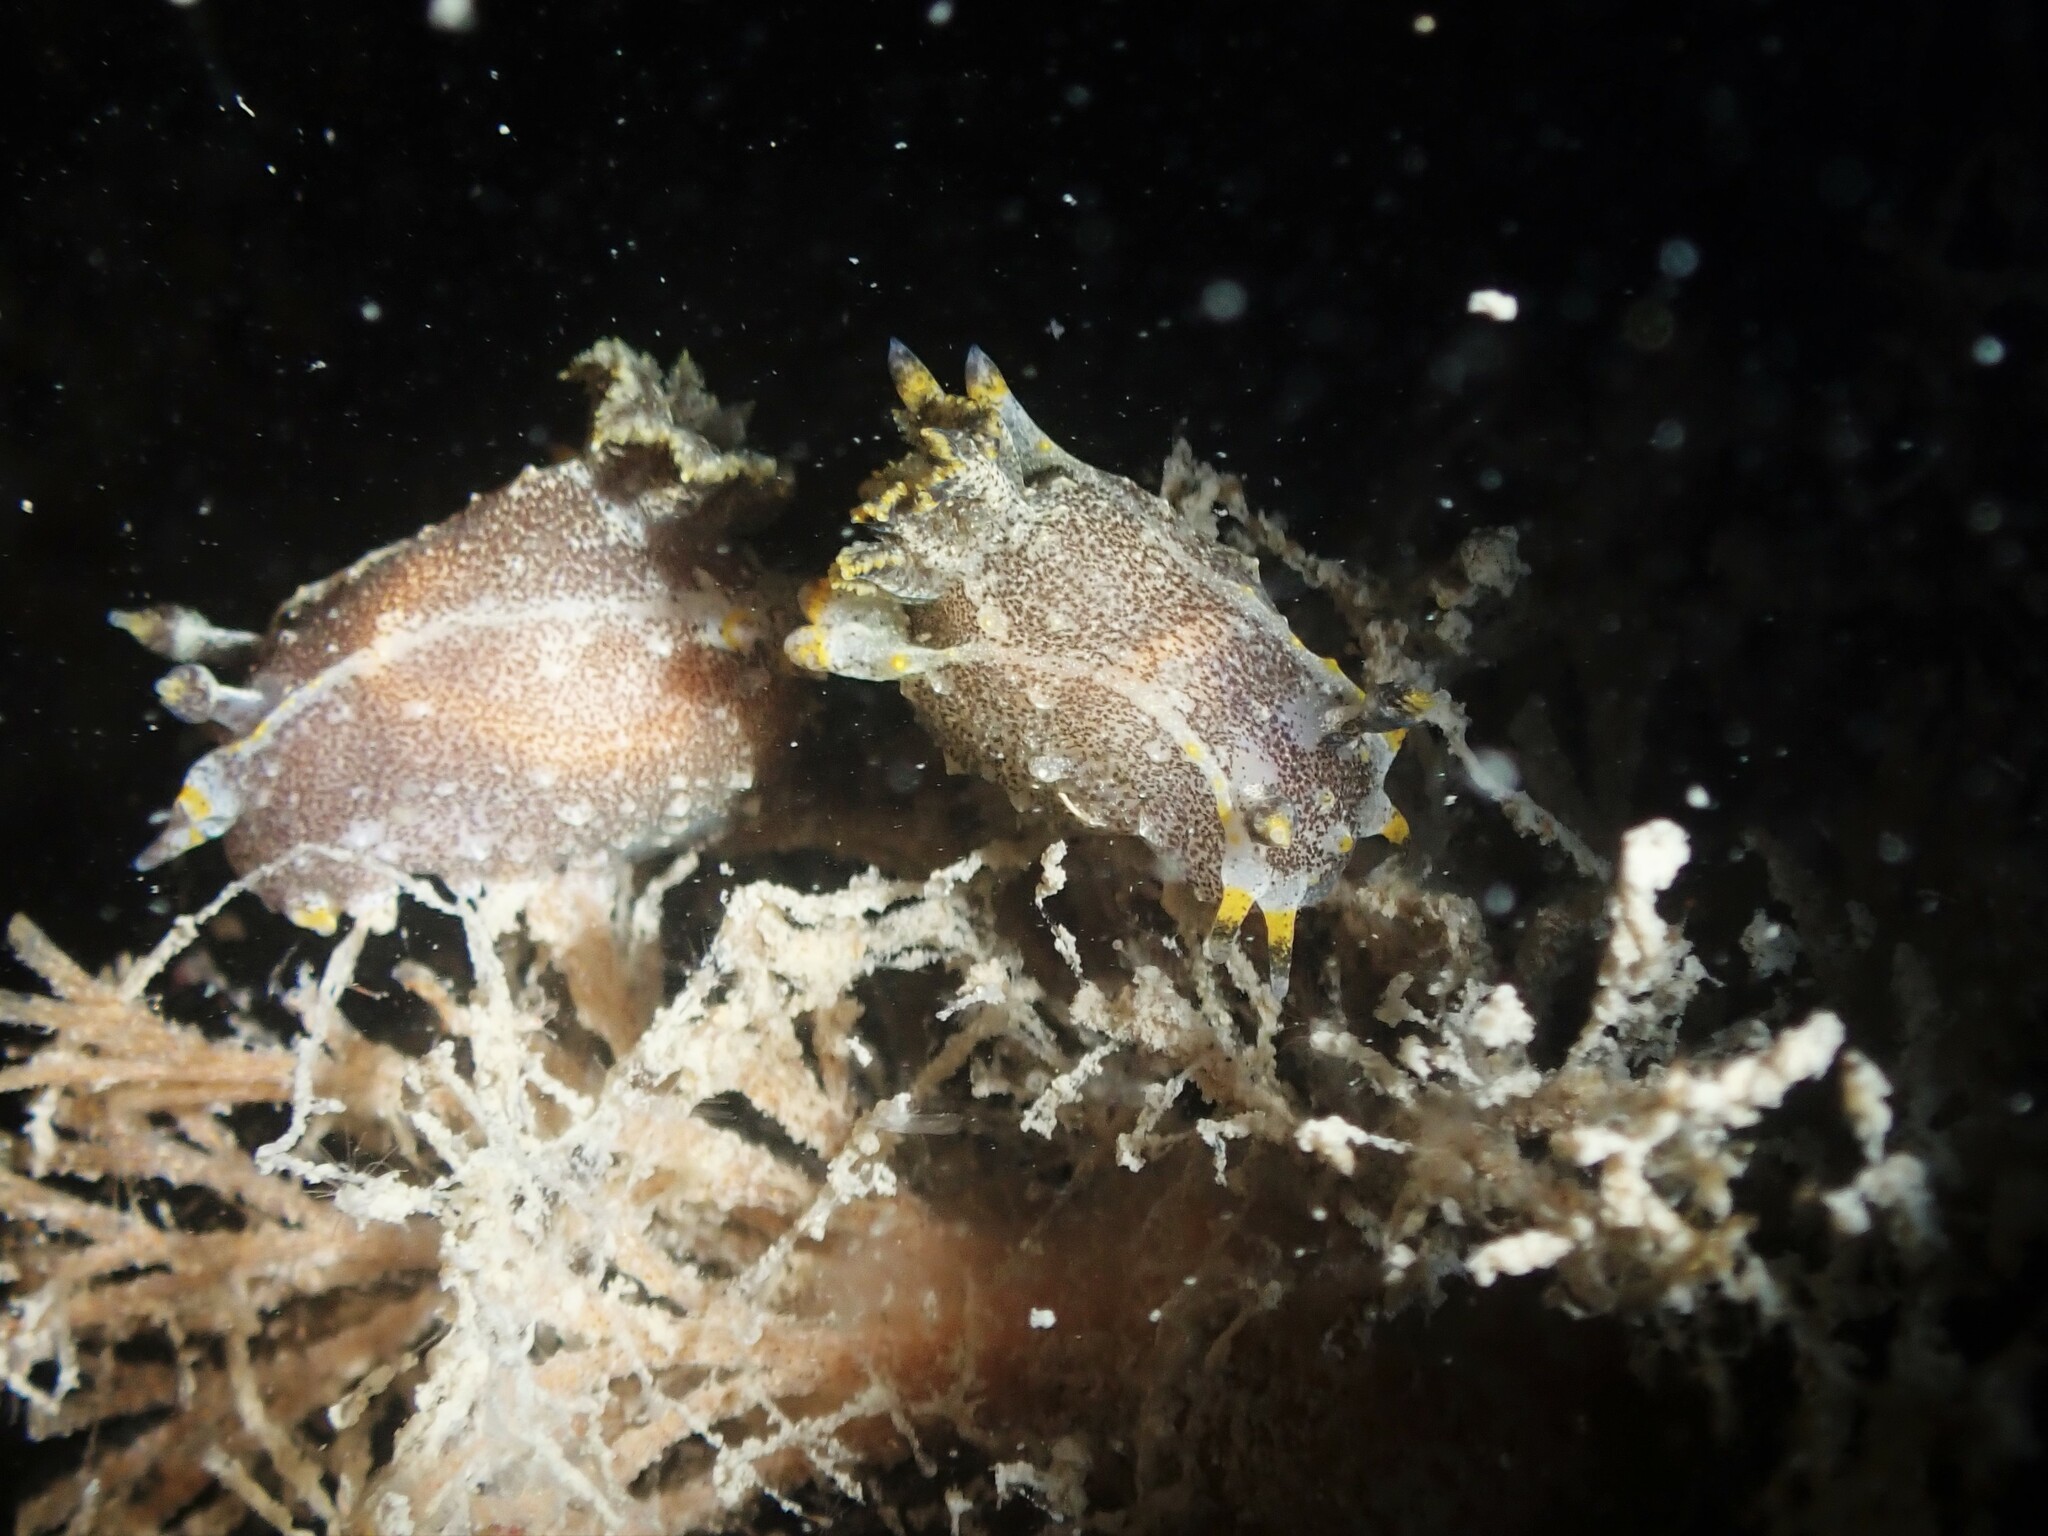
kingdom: Animalia
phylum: Mollusca
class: Gastropoda
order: Nudibranchia
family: Polyceridae
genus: Polycera
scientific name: Polycera hedgpethi
